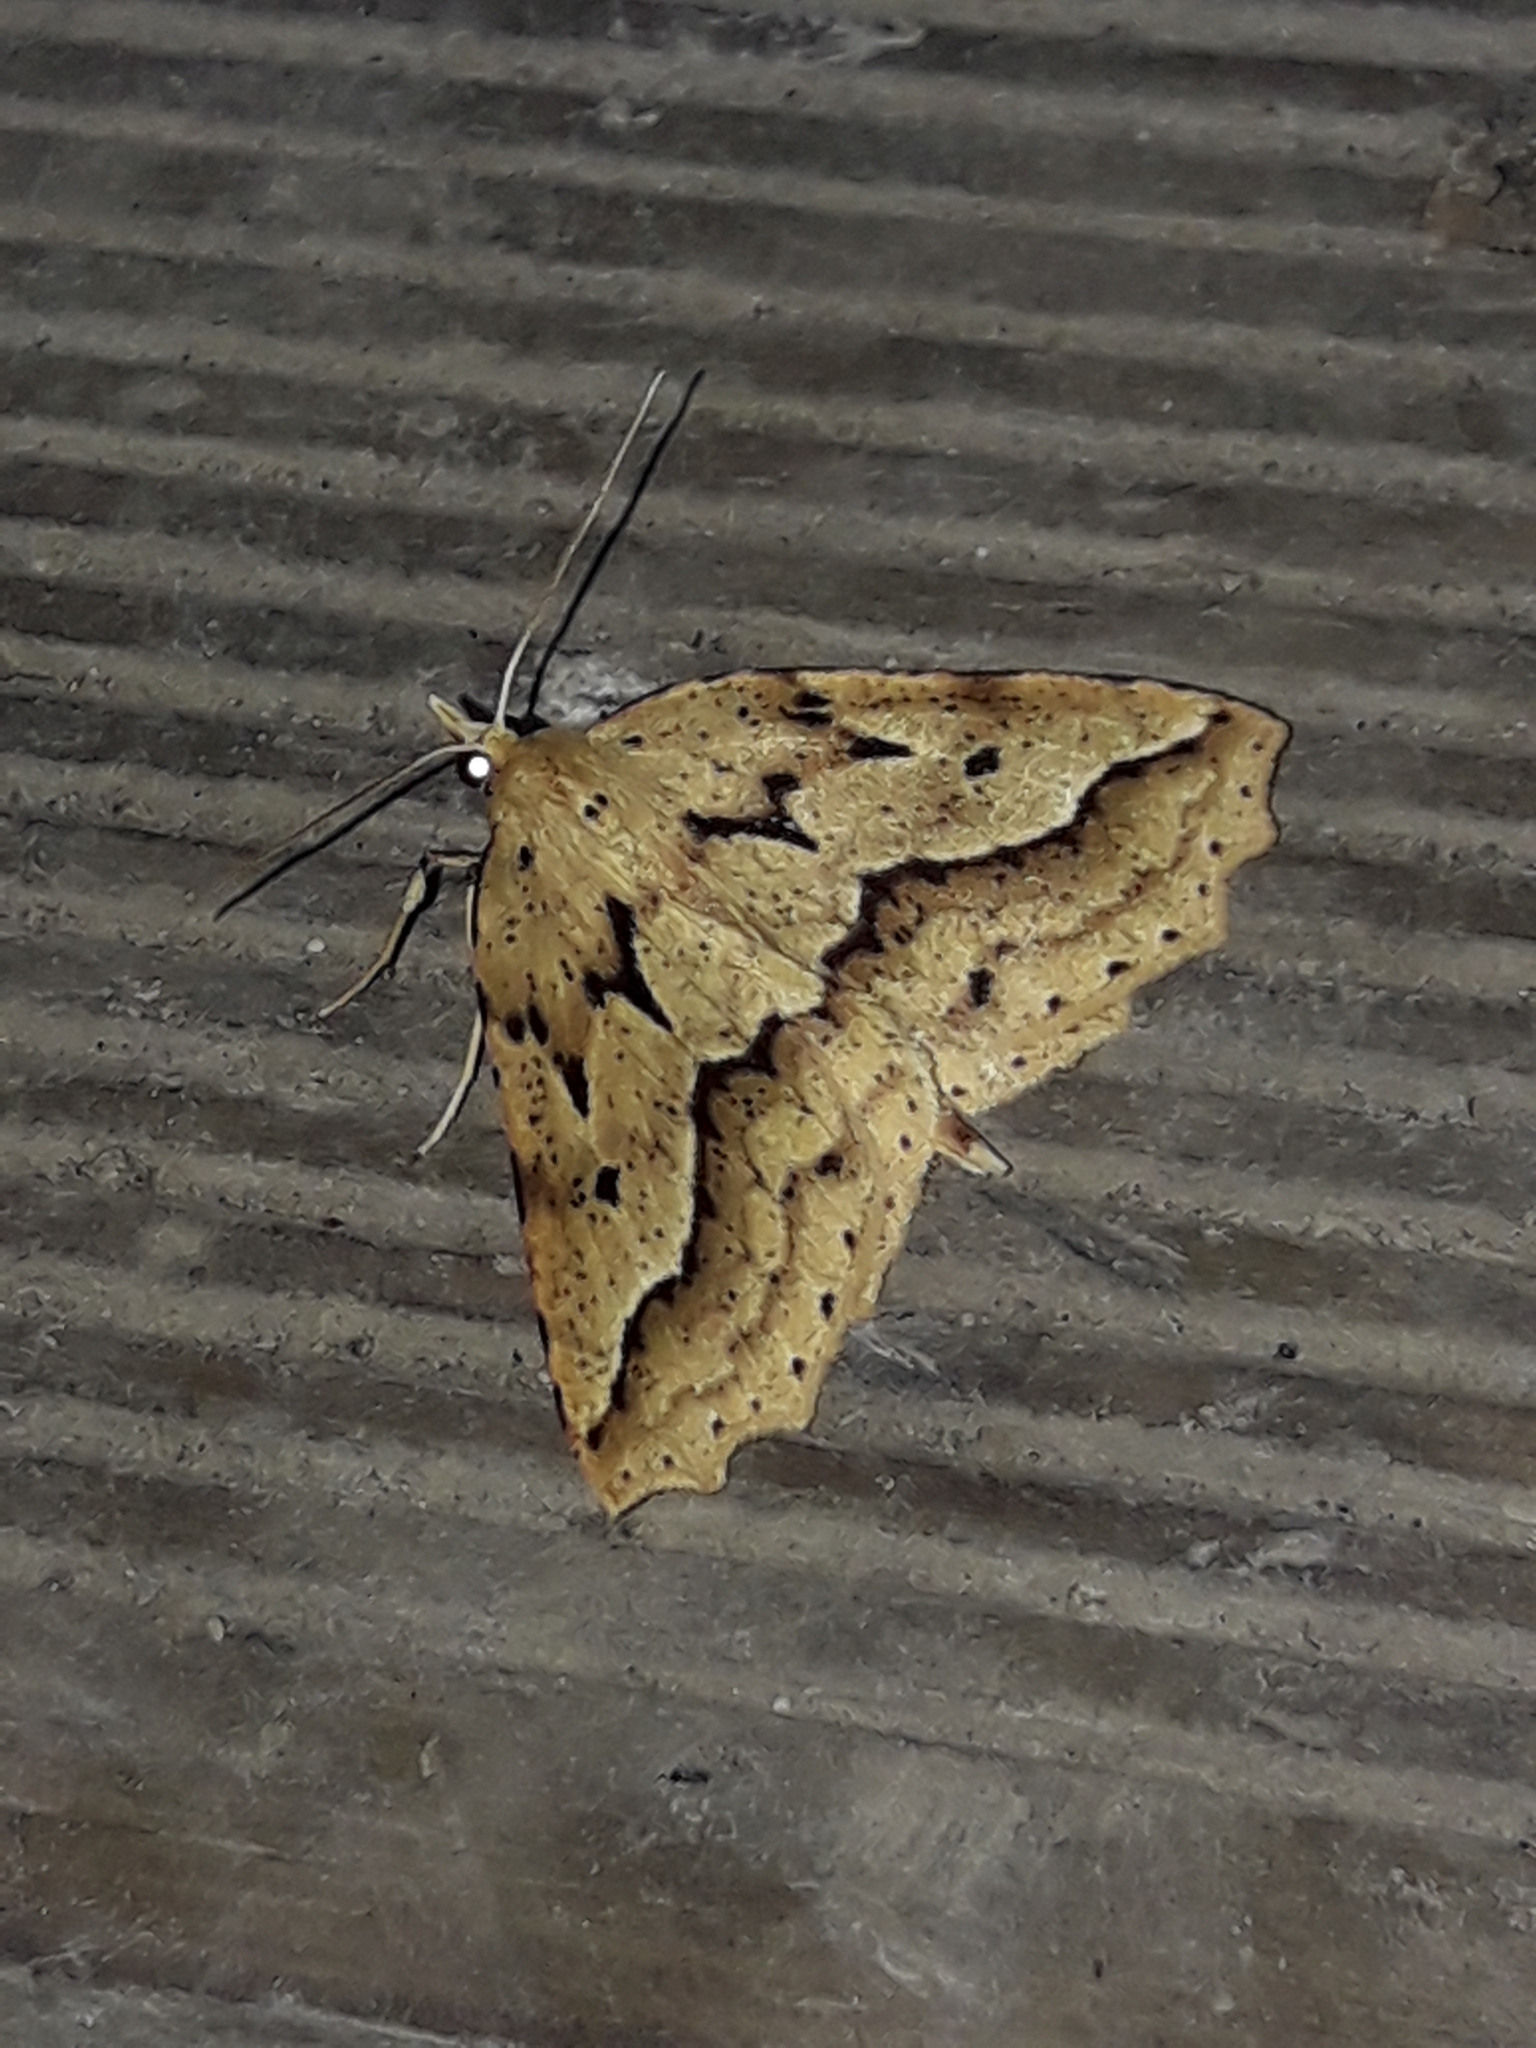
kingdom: Animalia
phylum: Arthropoda
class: Insecta
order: Lepidoptera
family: Geometridae
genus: Ischalis
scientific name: Ischalis variabilis
